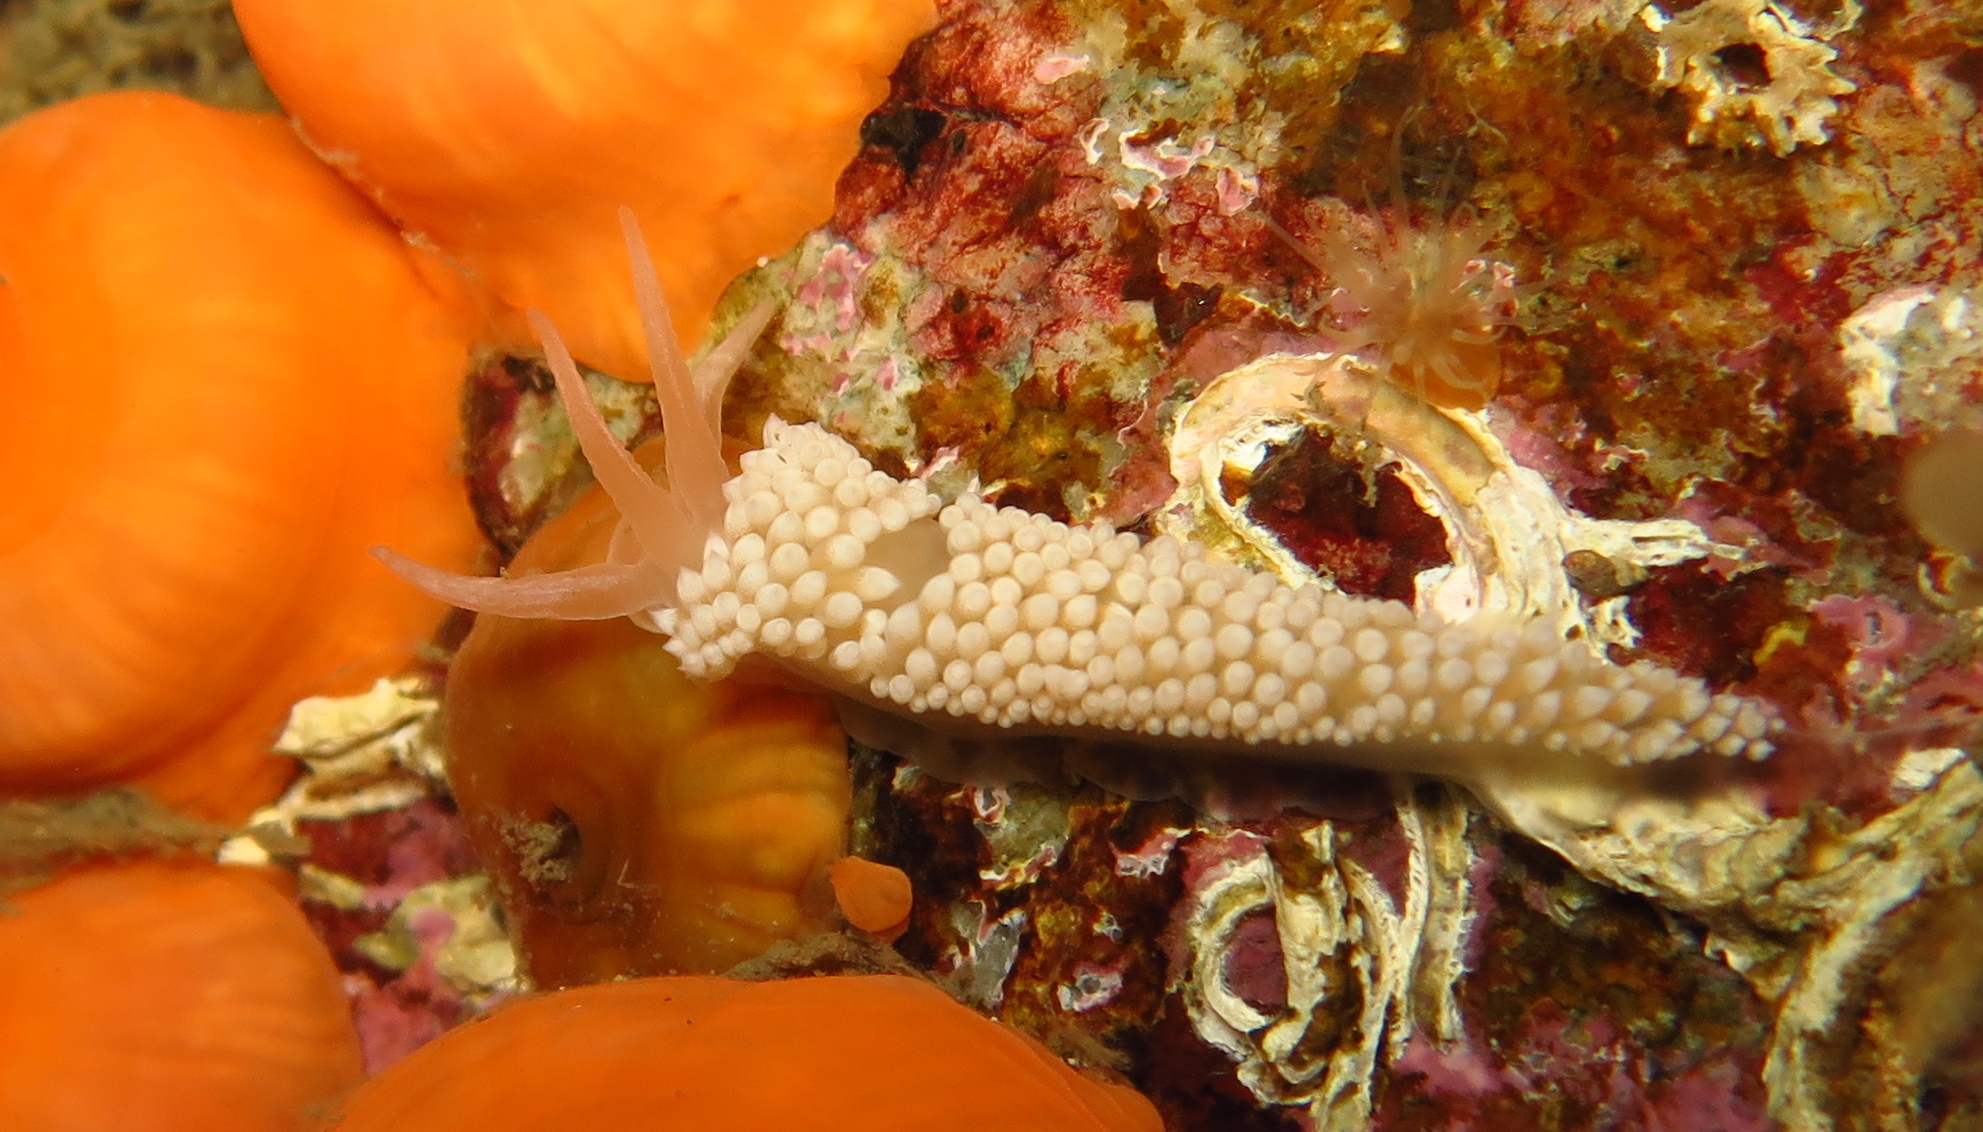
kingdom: Animalia
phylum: Mollusca
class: Gastropoda
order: Nudibranchia
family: Coryphellidae
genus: Coryphella
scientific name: Coryphella verrucosa
